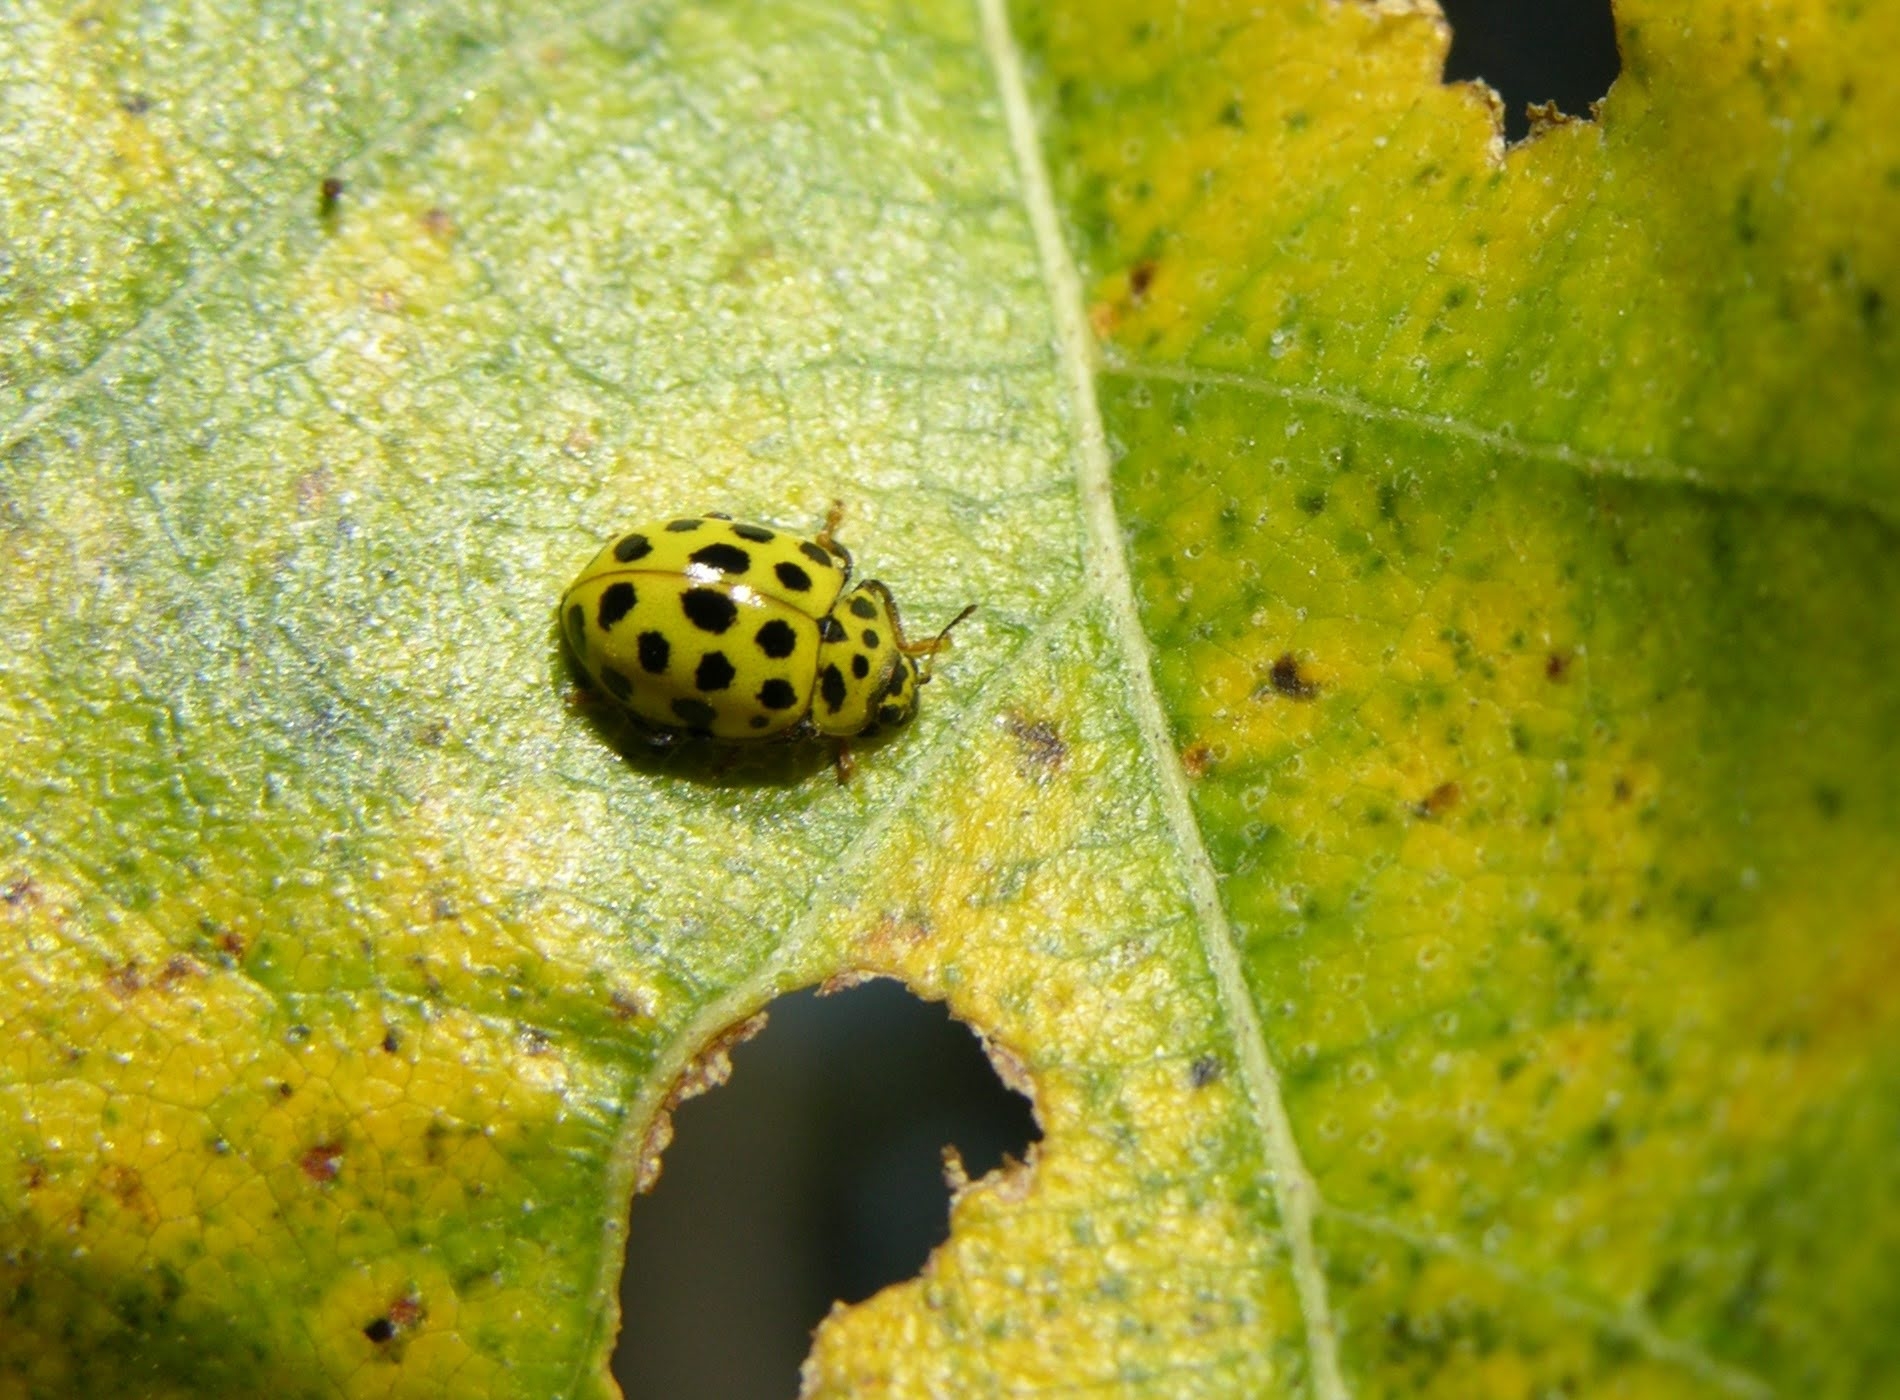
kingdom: Animalia
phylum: Arthropoda
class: Insecta
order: Coleoptera
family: Coccinellidae
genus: Psyllobora
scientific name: Psyllobora vigintiduopunctata
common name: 22-spot ladybird
